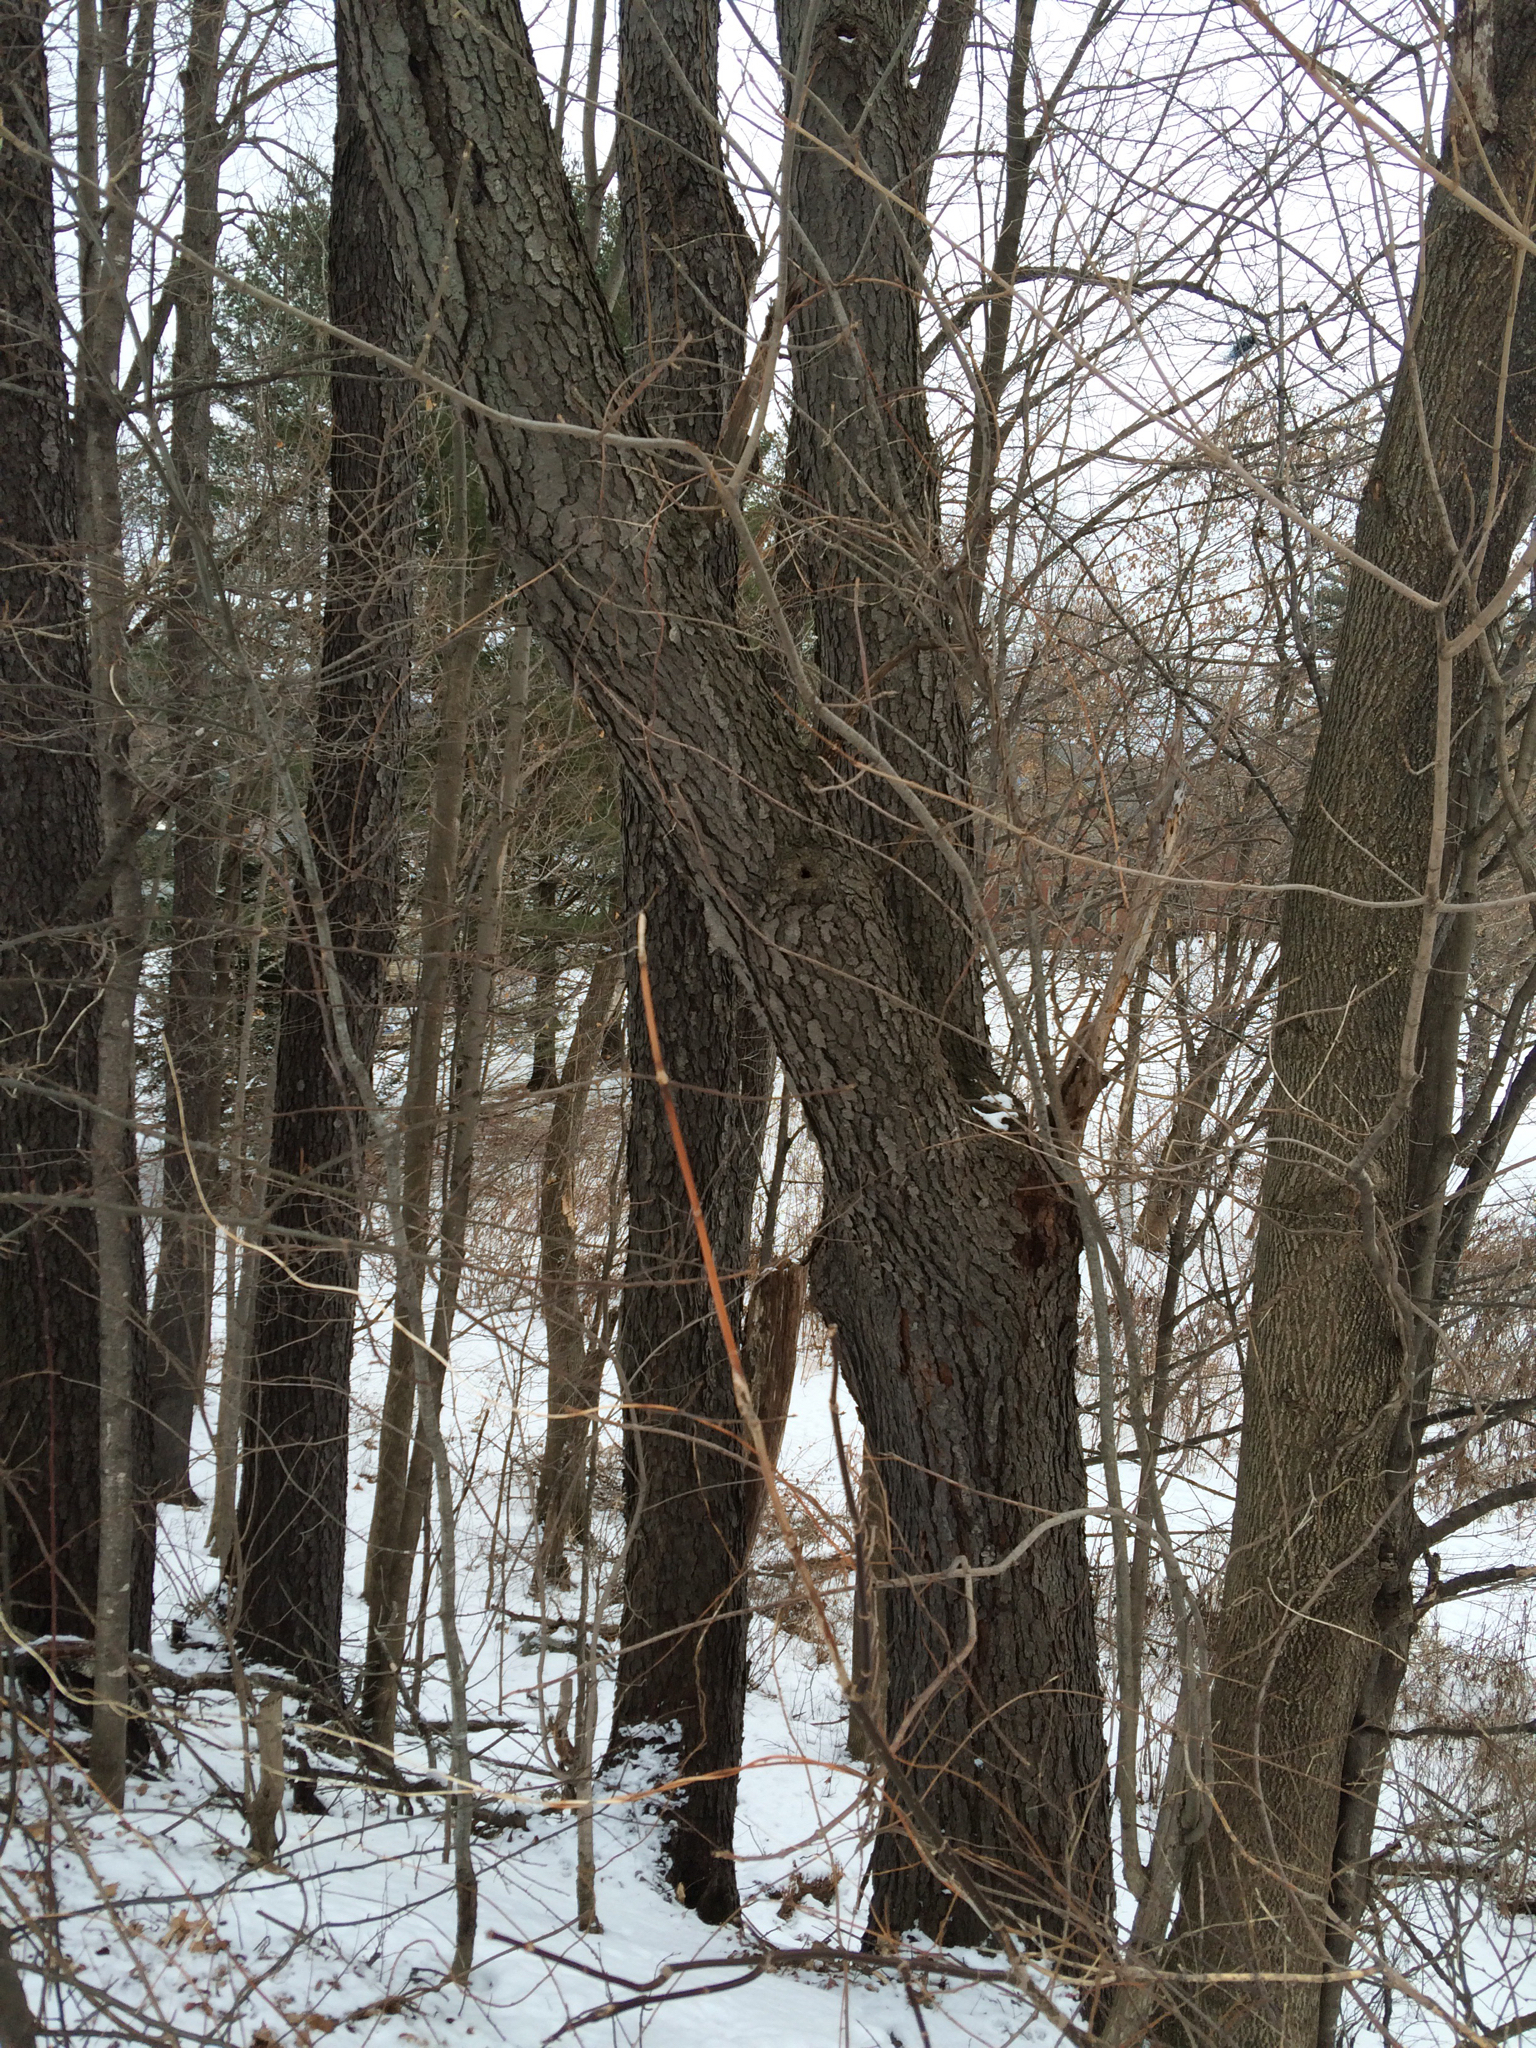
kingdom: Plantae
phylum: Tracheophyta
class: Magnoliopsida
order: Rosales
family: Rosaceae
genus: Prunus
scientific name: Prunus serotina
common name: Black cherry
